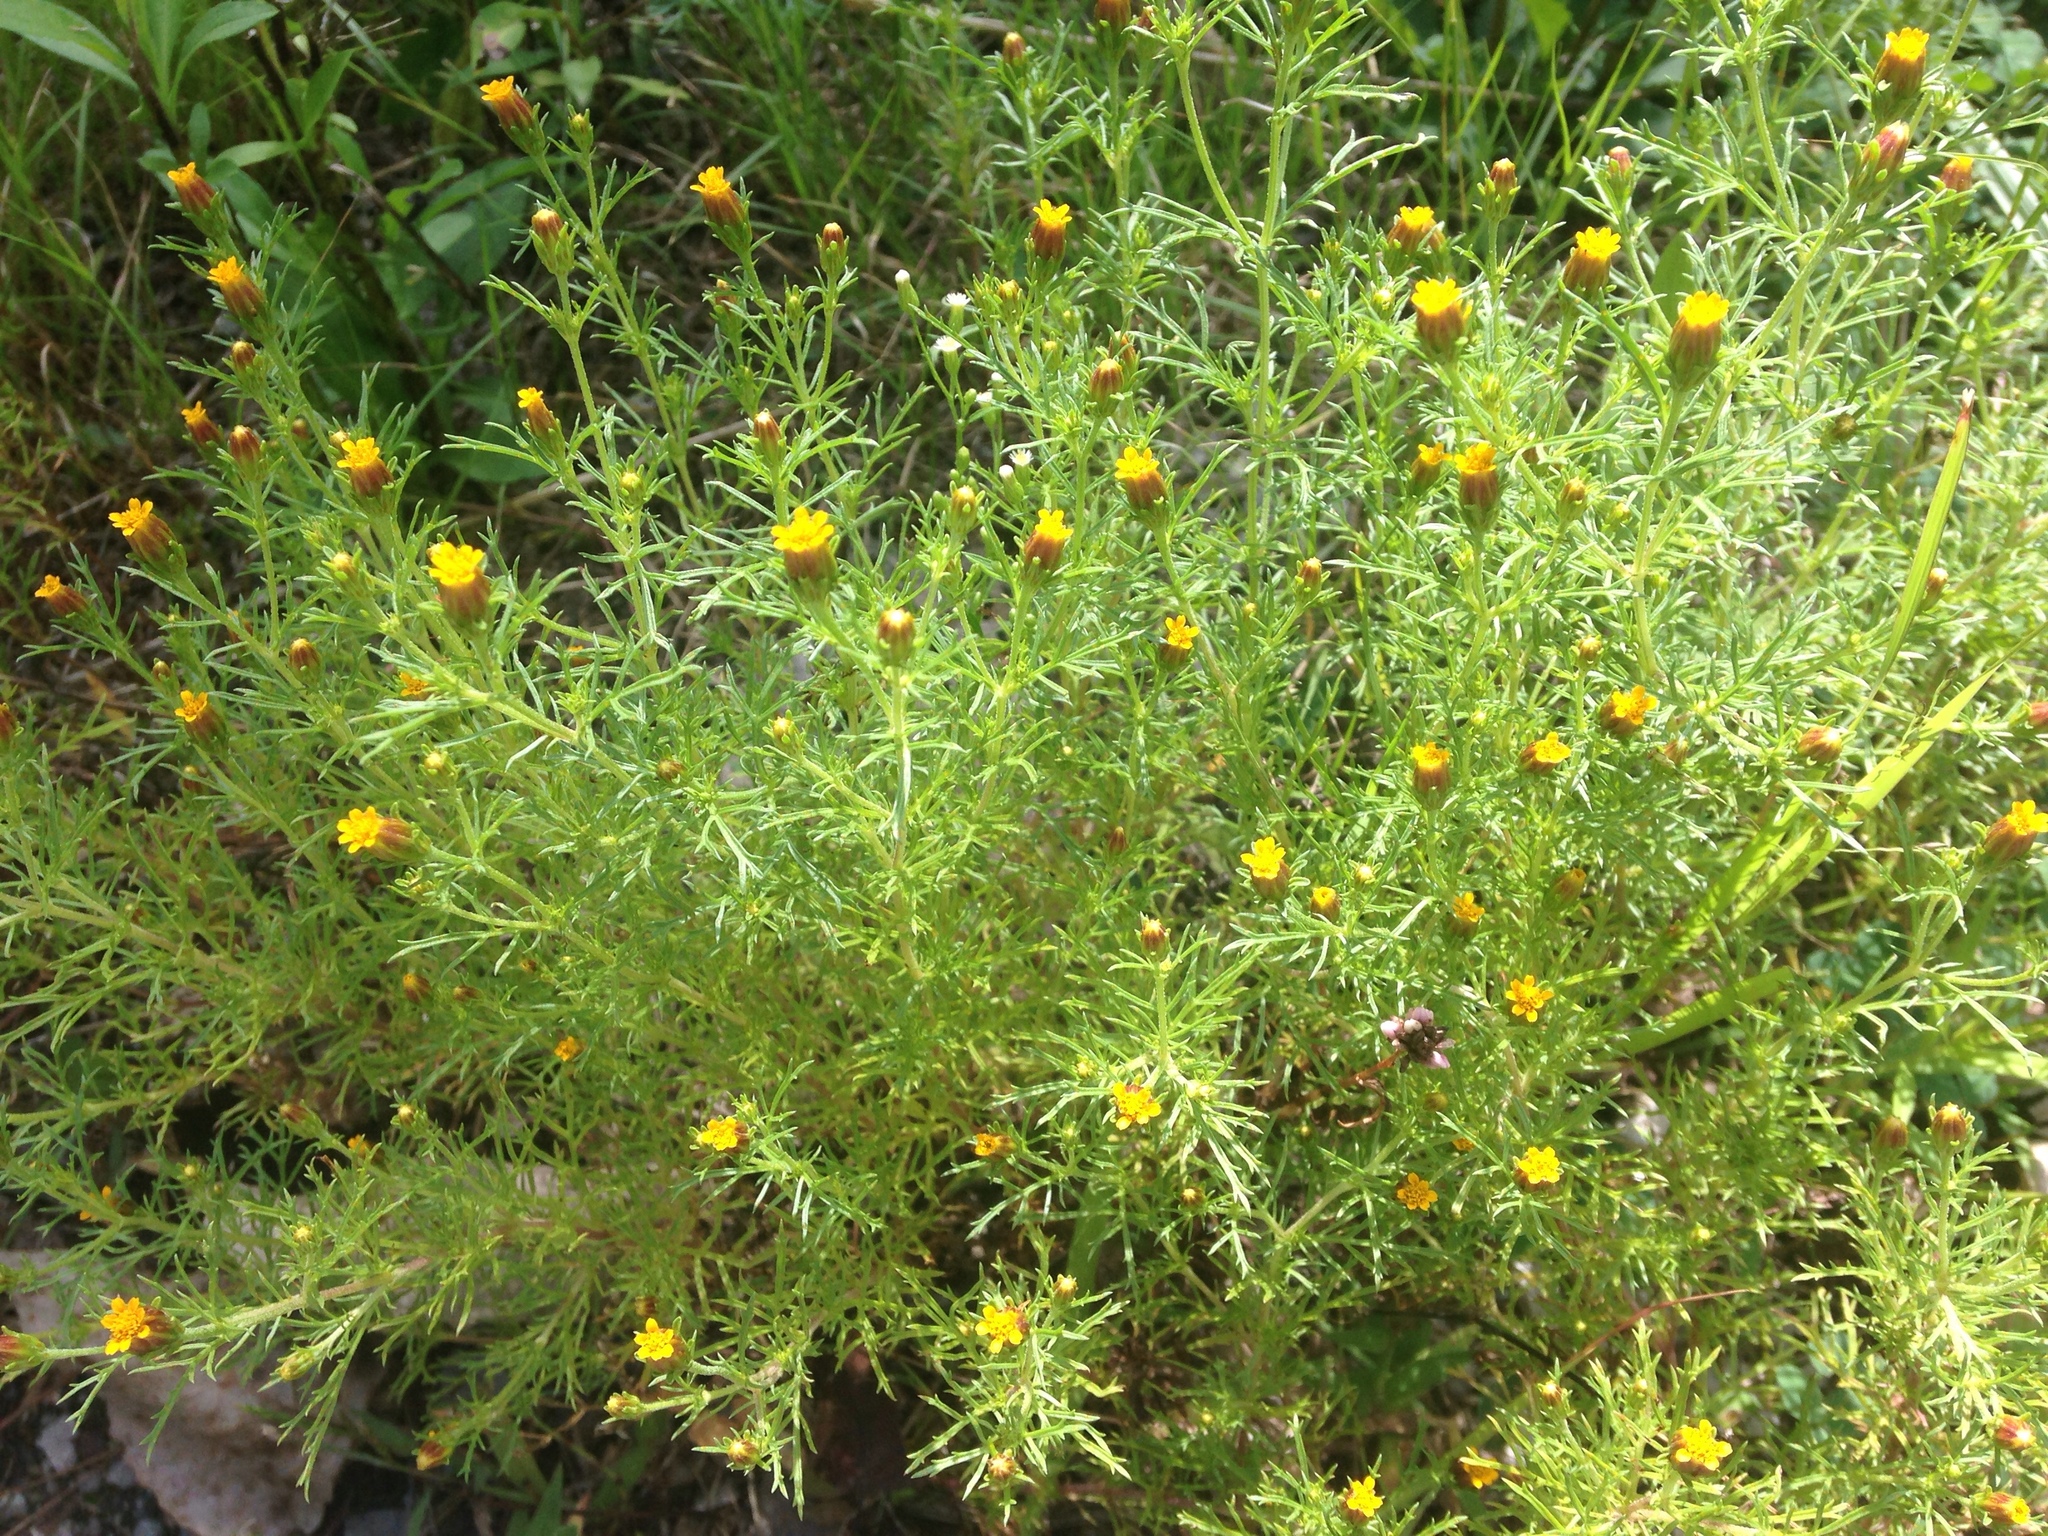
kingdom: Plantae
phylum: Tracheophyta
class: Magnoliopsida
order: Asterales
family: Asteraceae
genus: Dyssodia
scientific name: Dyssodia papposa
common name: Dogweed
